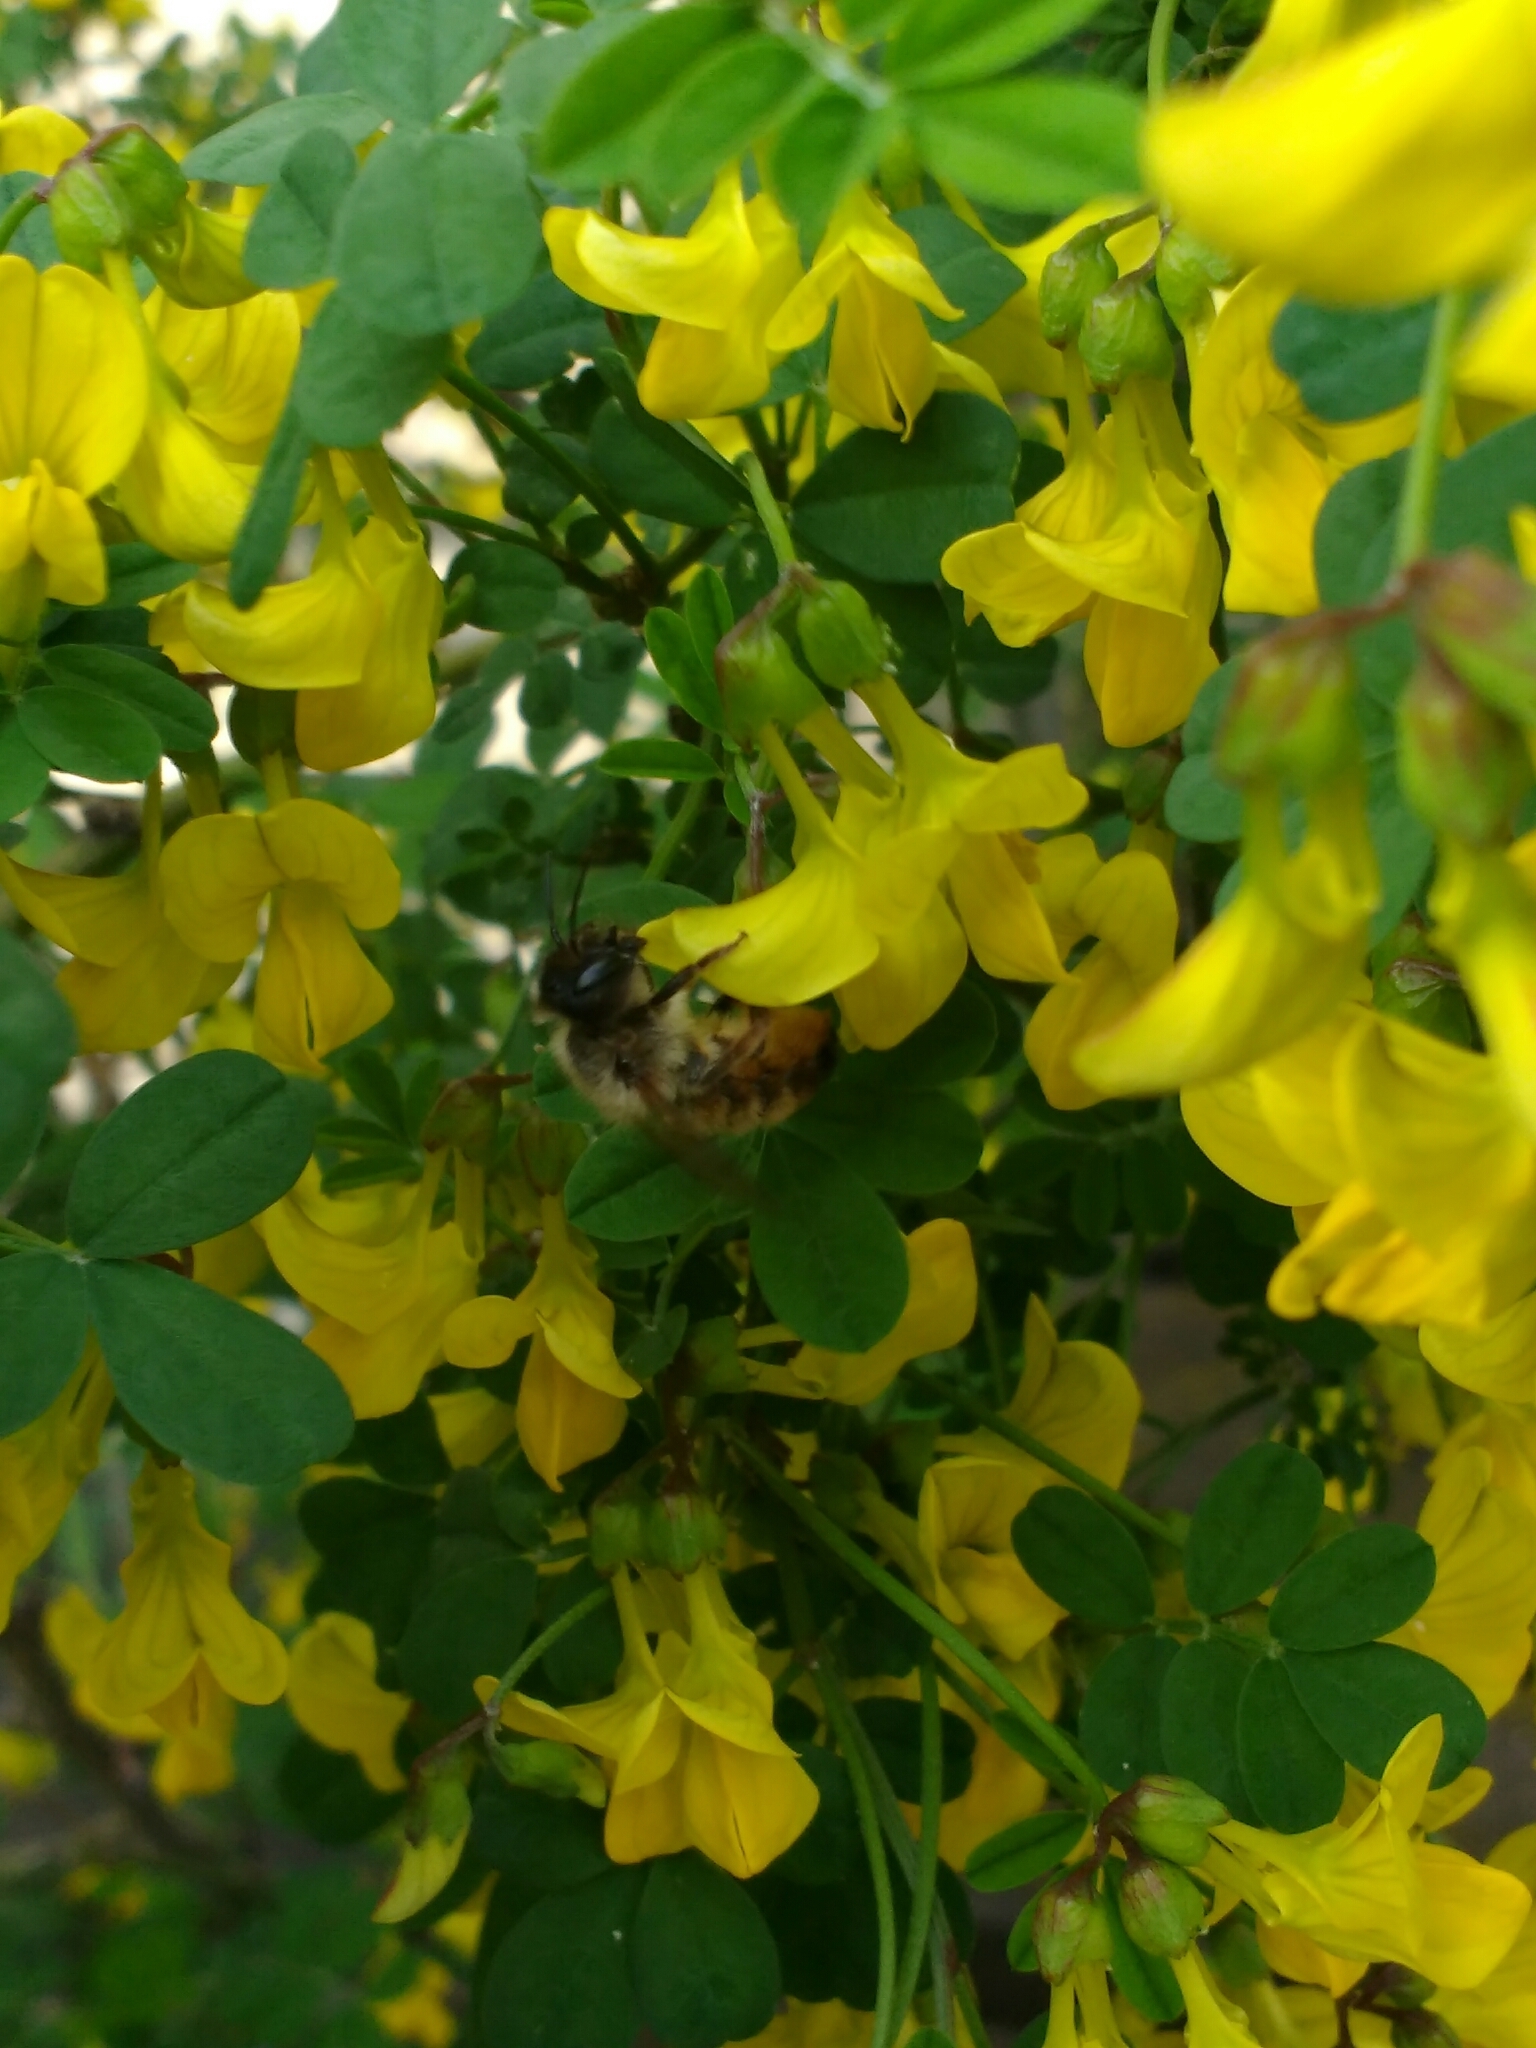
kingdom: Animalia
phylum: Arthropoda
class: Insecta
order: Hymenoptera
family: Megachilidae
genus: Osmia
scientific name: Osmia bicornis
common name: Red mason bee
